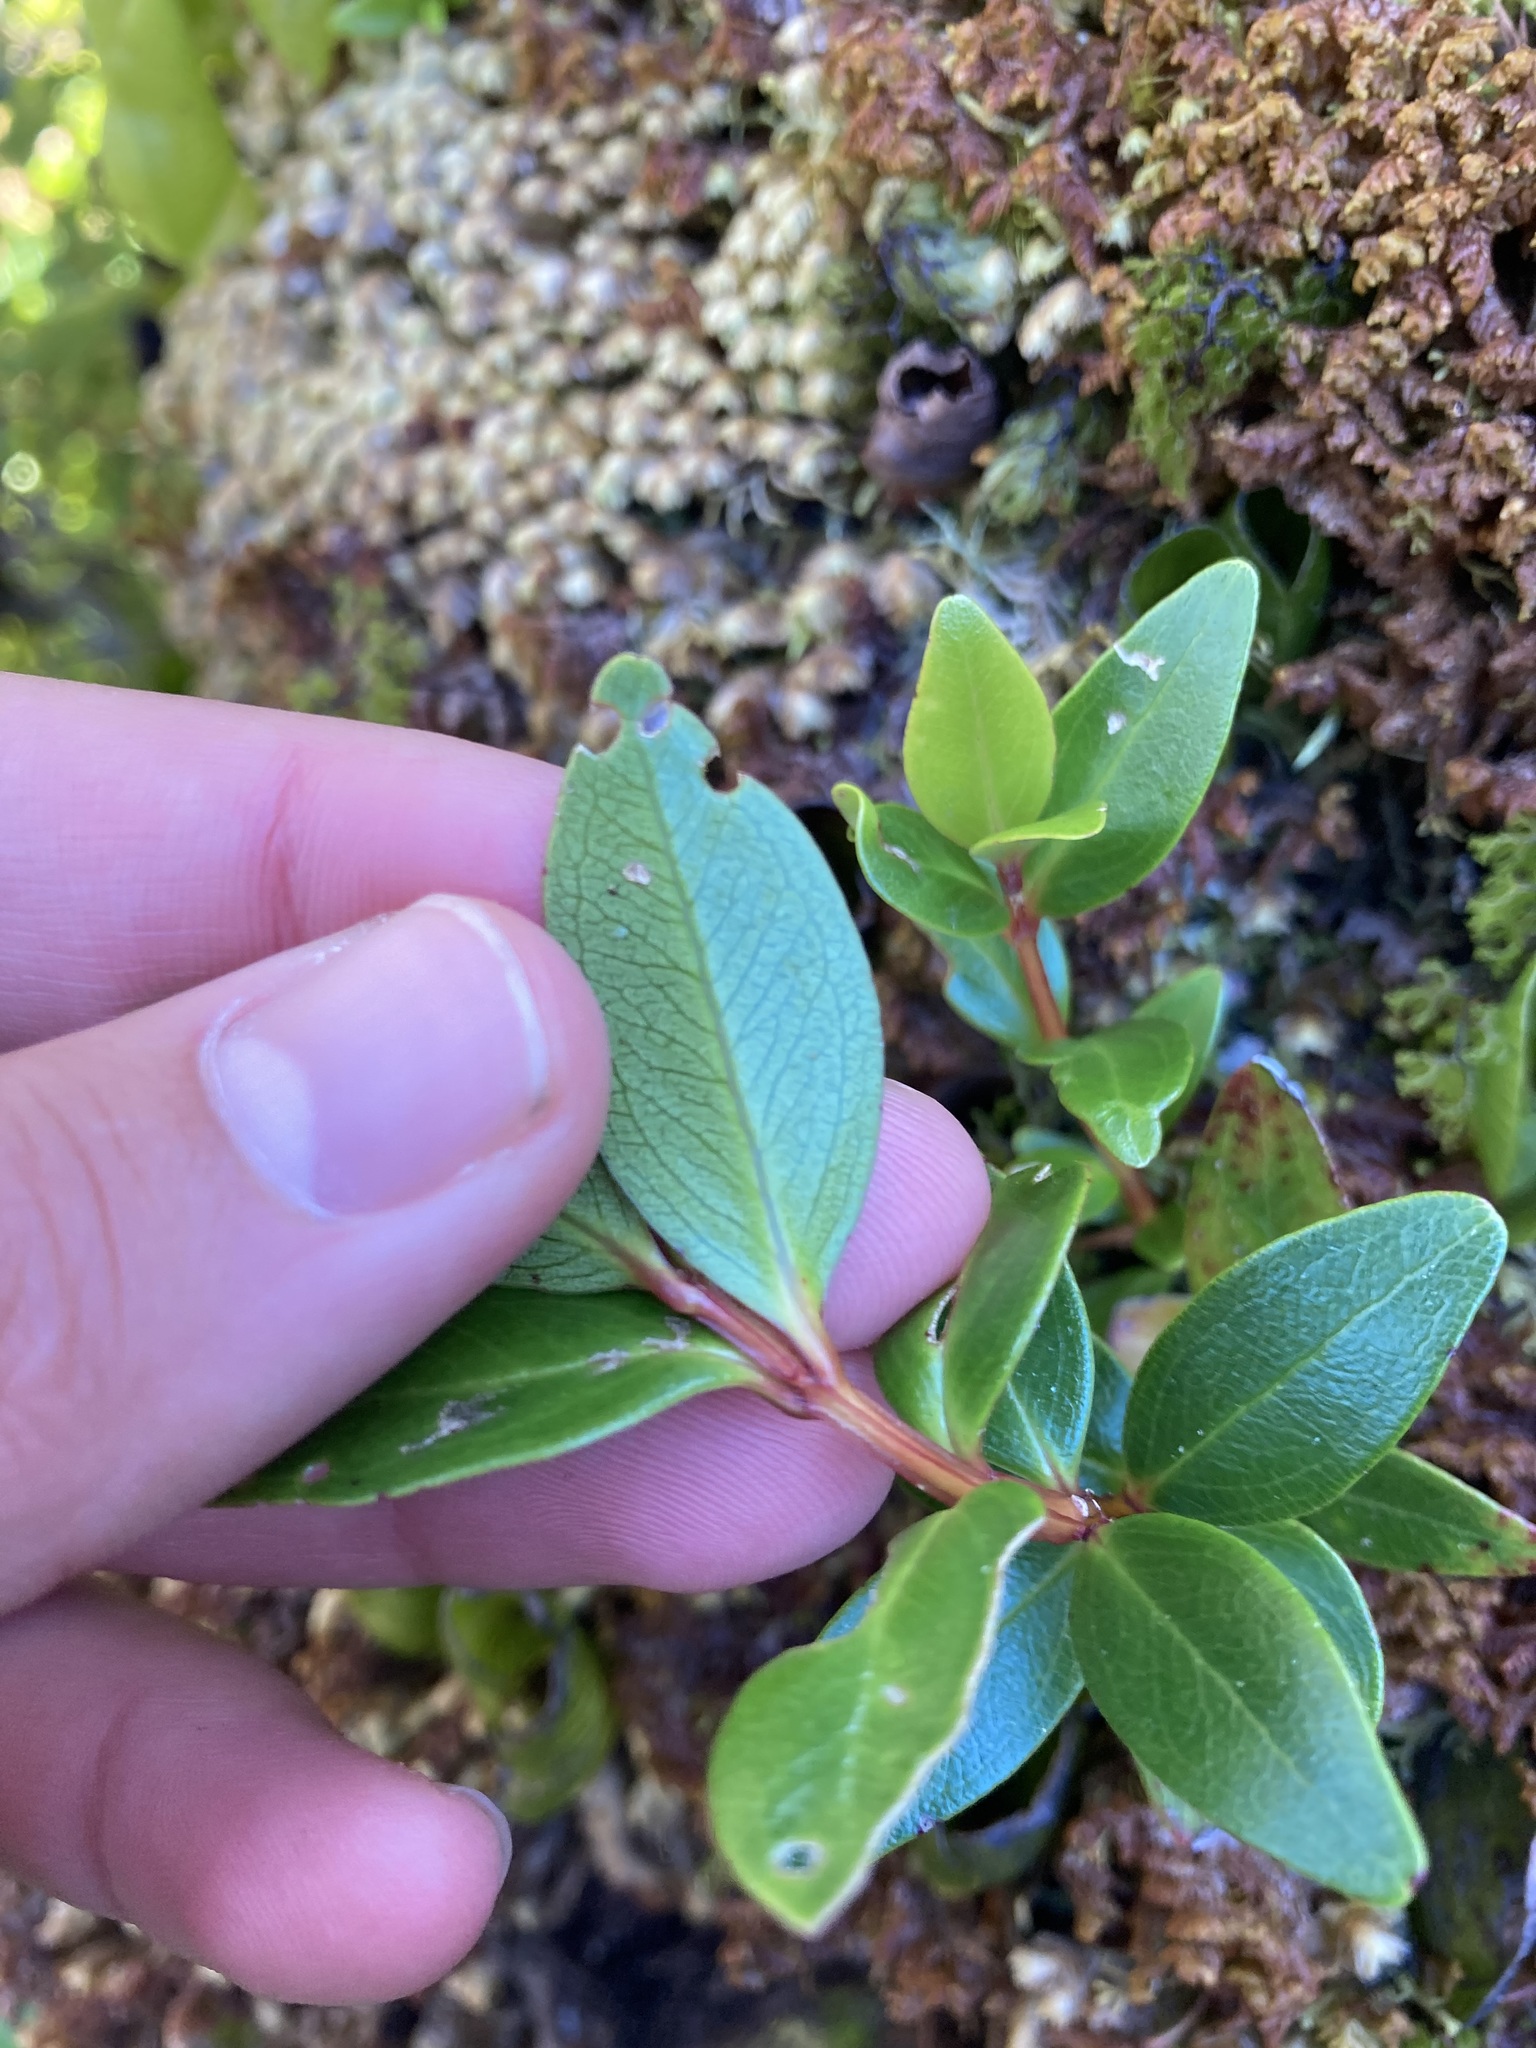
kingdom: Plantae
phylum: Tracheophyta
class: Magnoliopsida
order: Myrtales
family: Myrtaceae
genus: Metrosideros
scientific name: Metrosideros robusta
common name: Northern rata
